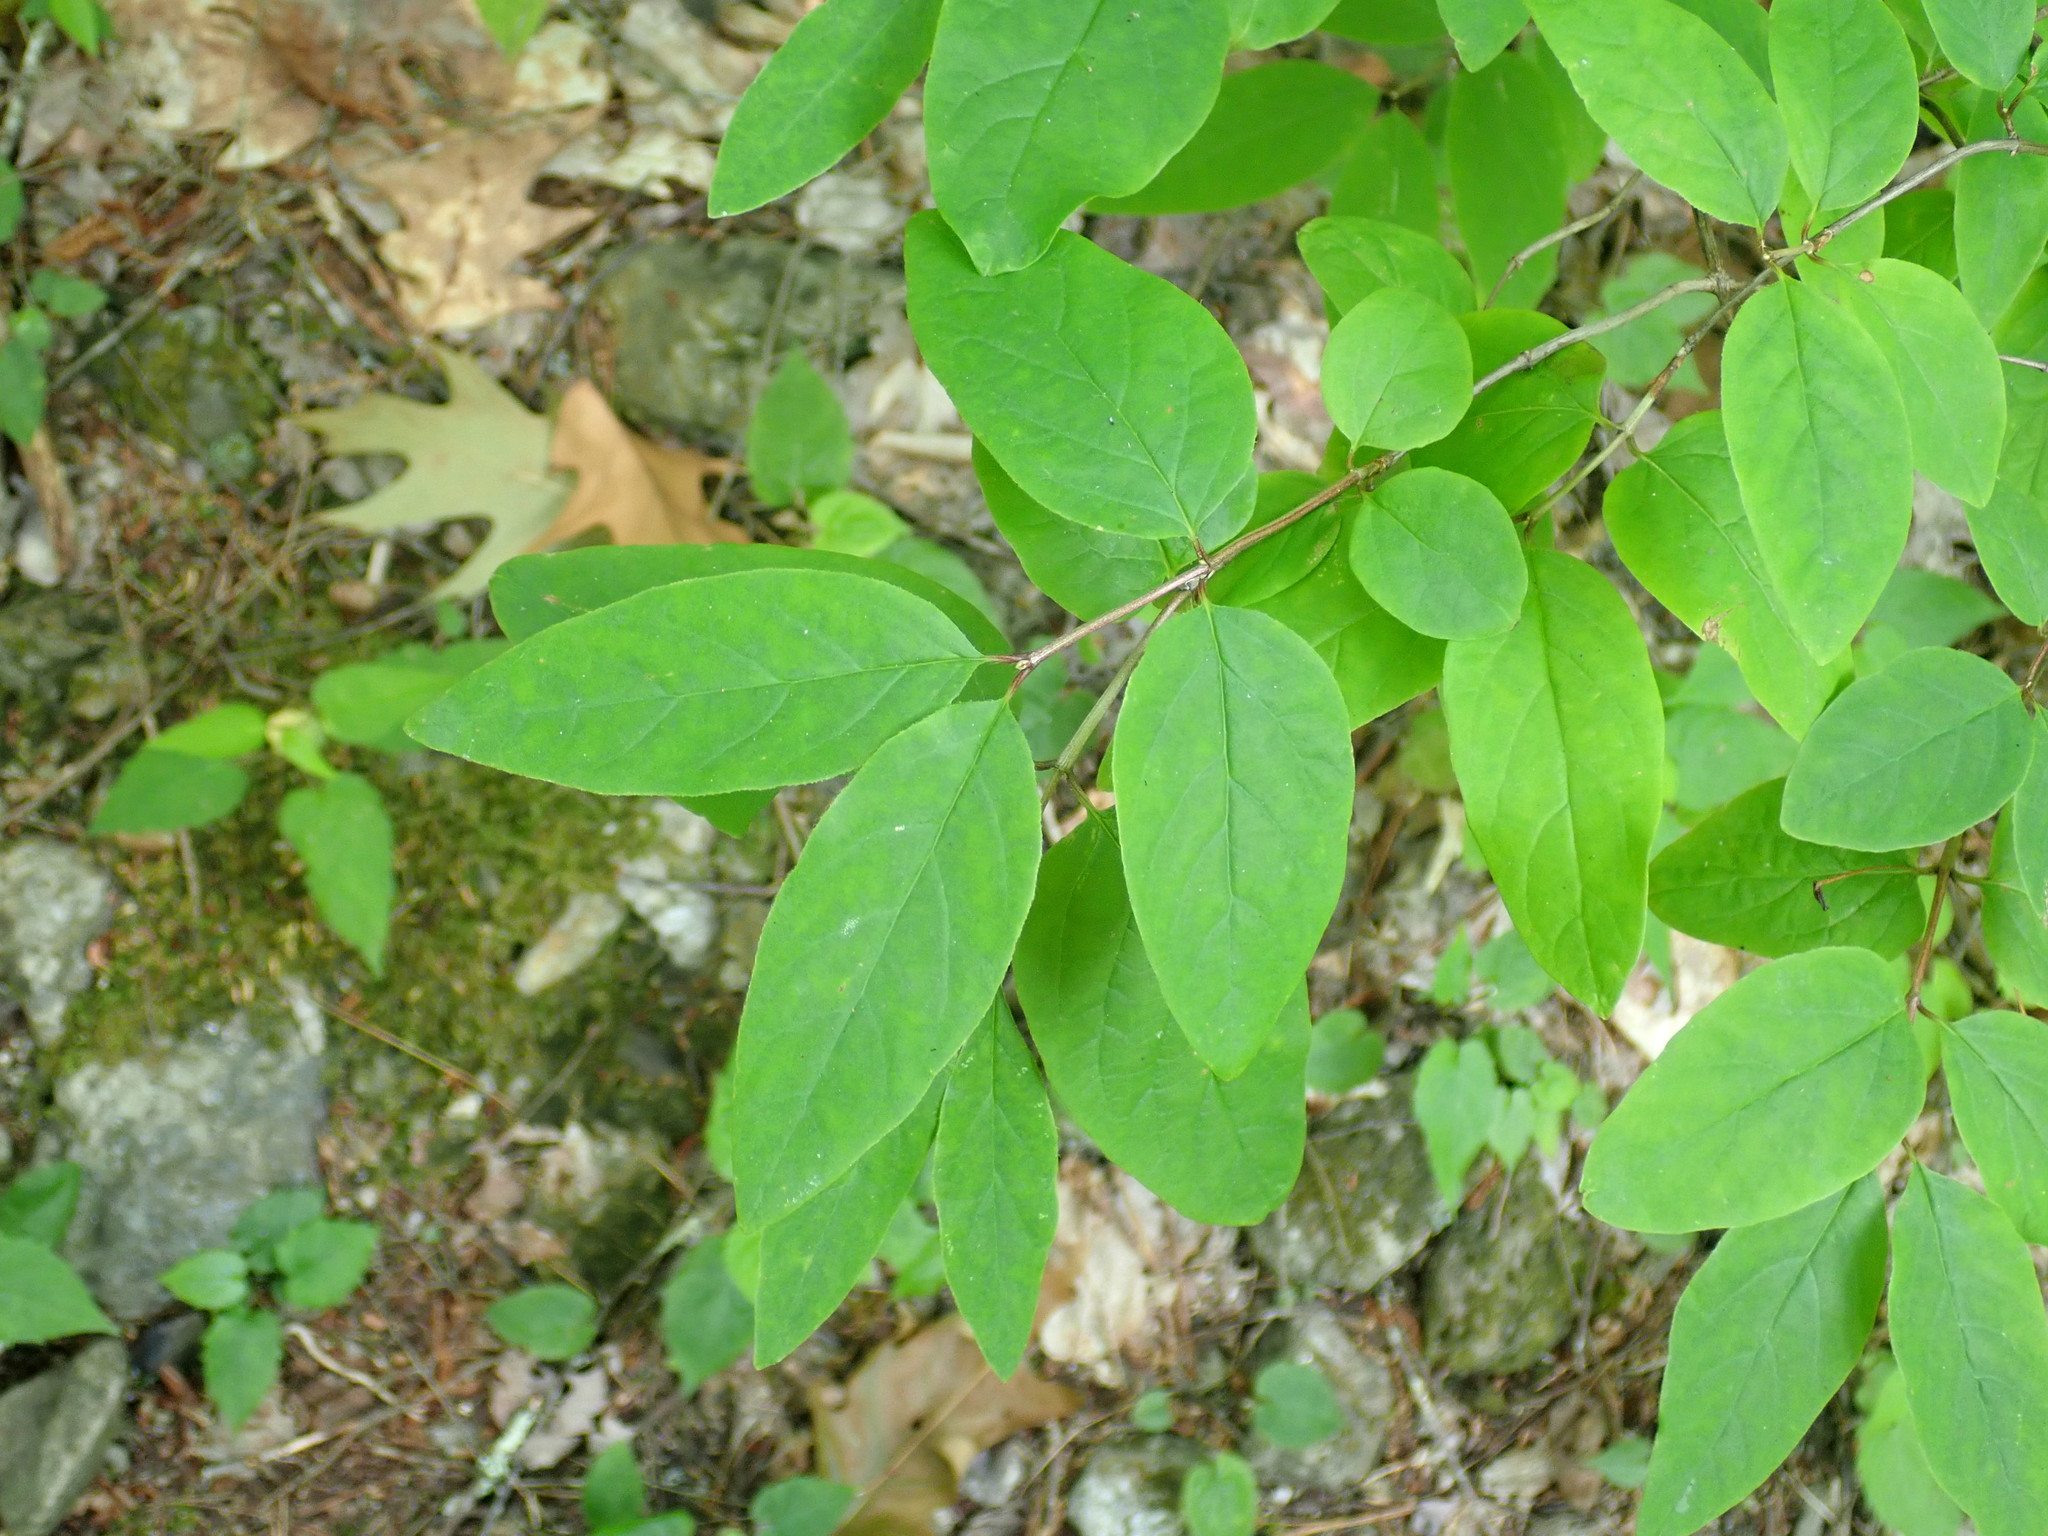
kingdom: Plantae
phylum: Tracheophyta
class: Magnoliopsida
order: Dipsacales
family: Caprifoliaceae
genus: Lonicera
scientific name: Lonicera canadensis
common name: American fly-honeysuckle
